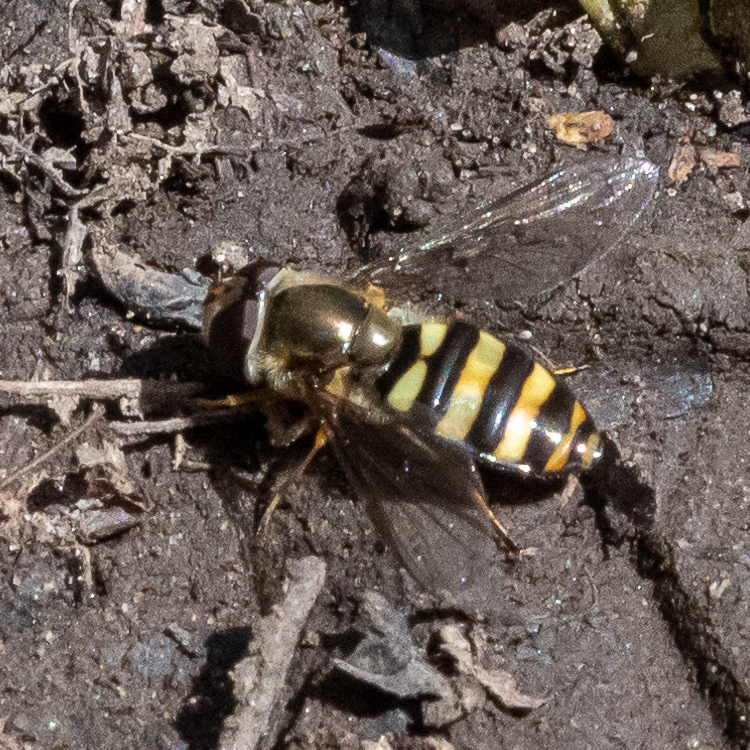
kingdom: Animalia
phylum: Arthropoda
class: Insecta
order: Diptera
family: Syrphidae
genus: Eupeodes
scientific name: Eupeodes
